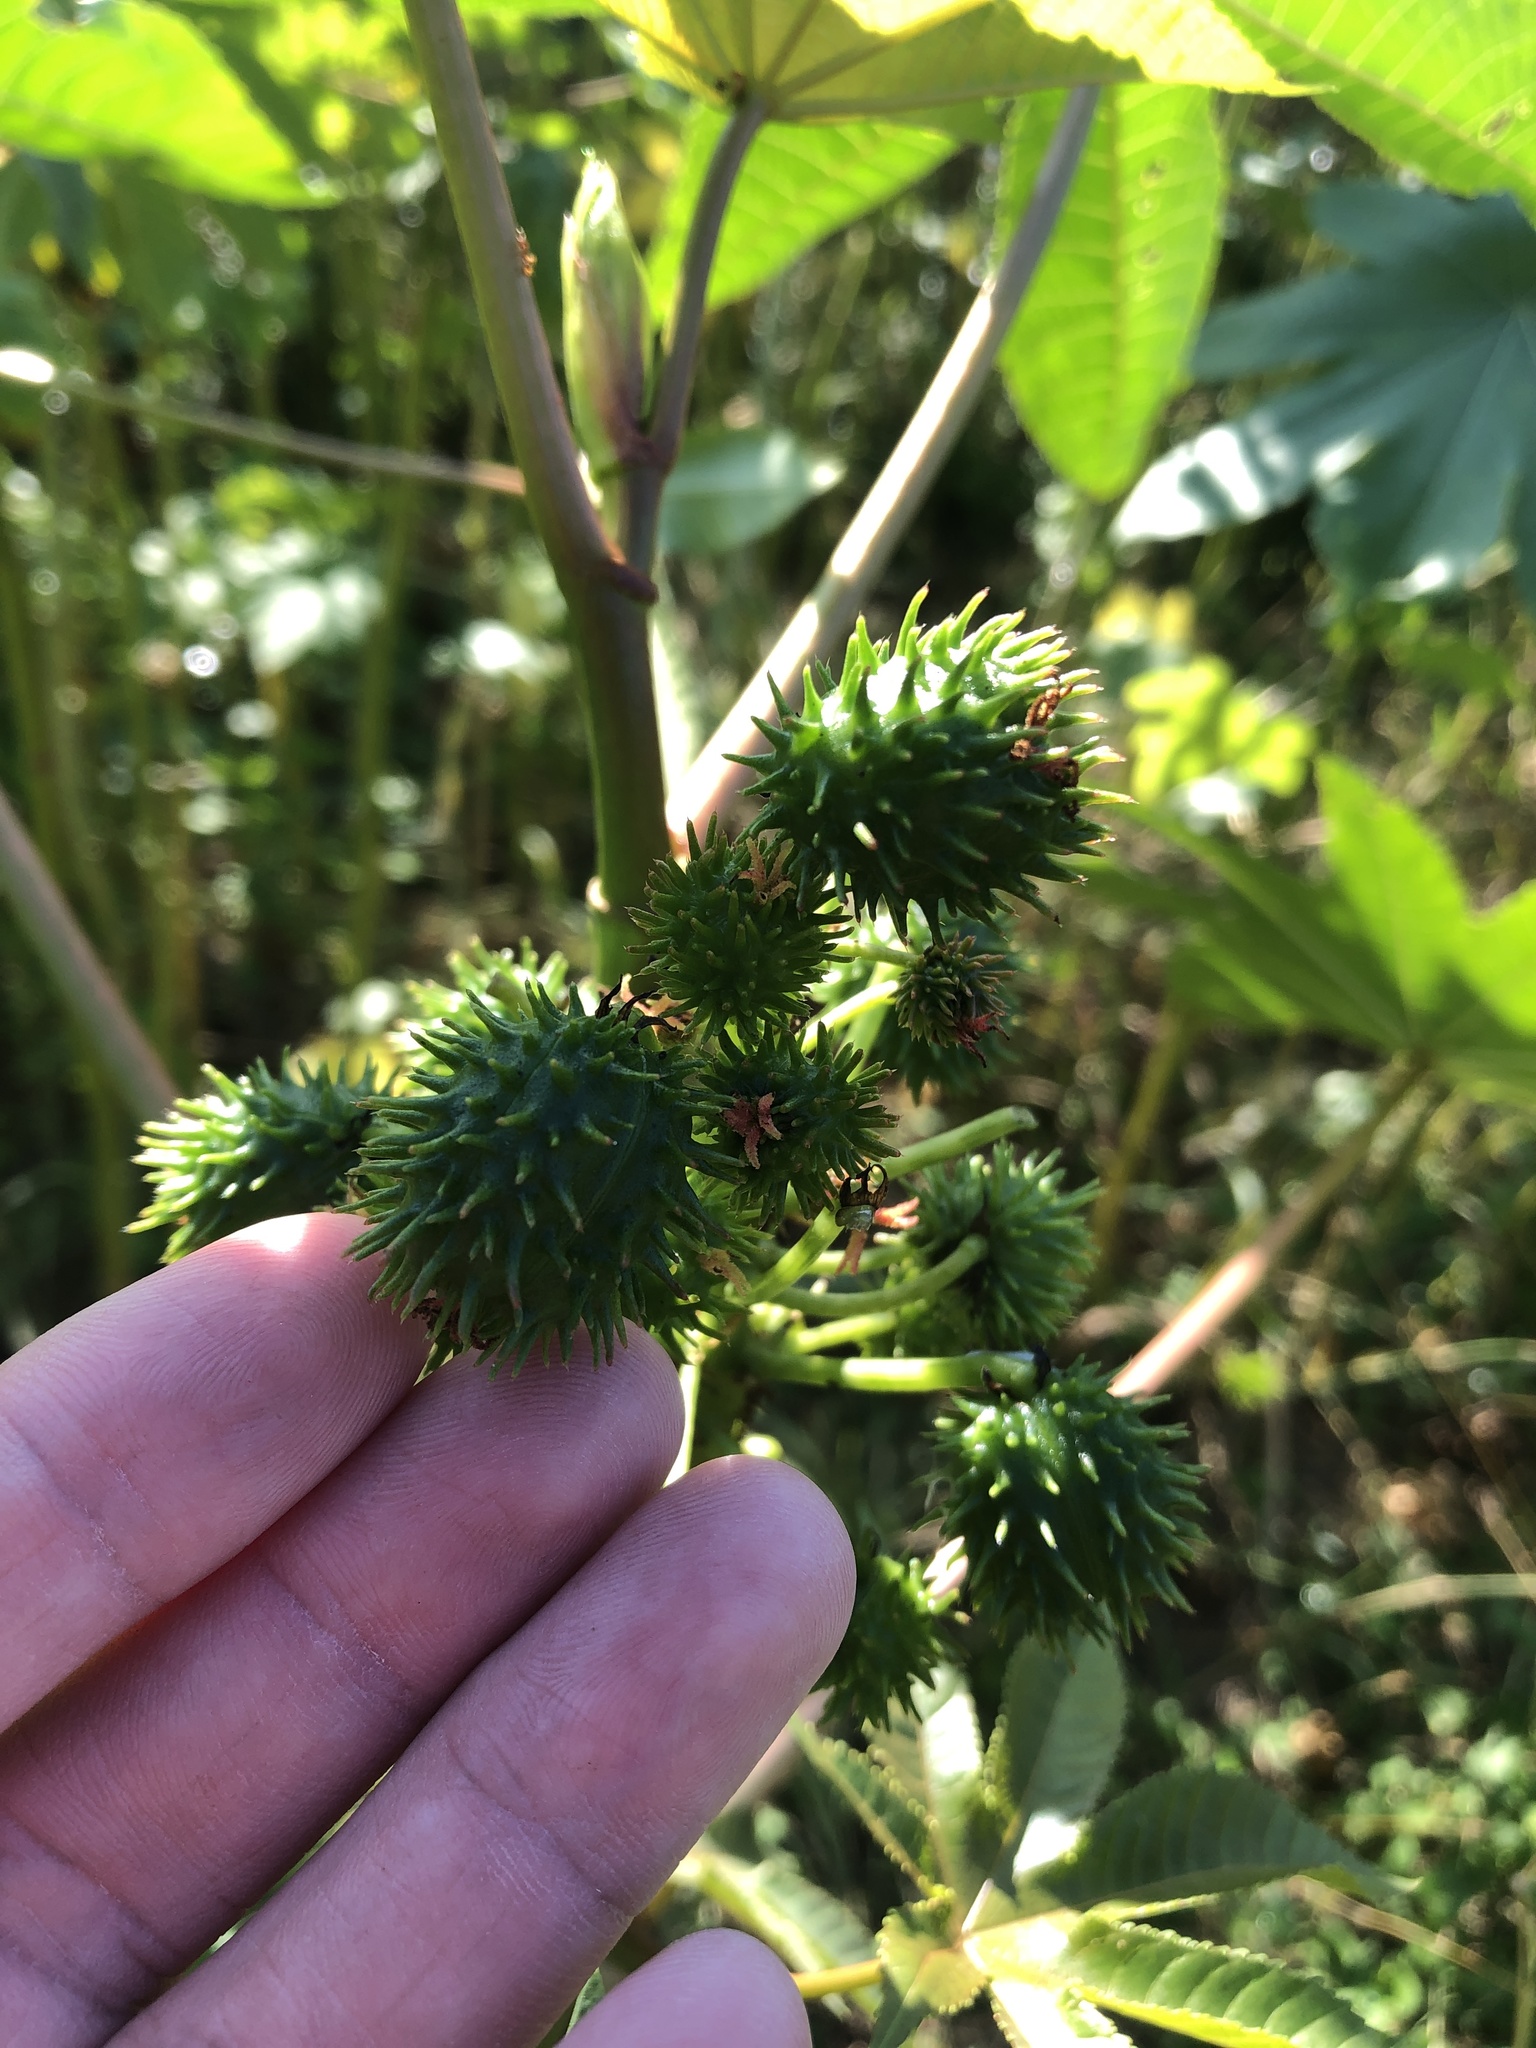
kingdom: Plantae
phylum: Tracheophyta
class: Magnoliopsida
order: Malpighiales
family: Euphorbiaceae
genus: Ricinus
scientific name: Ricinus communis
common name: Castor-oil-plant
